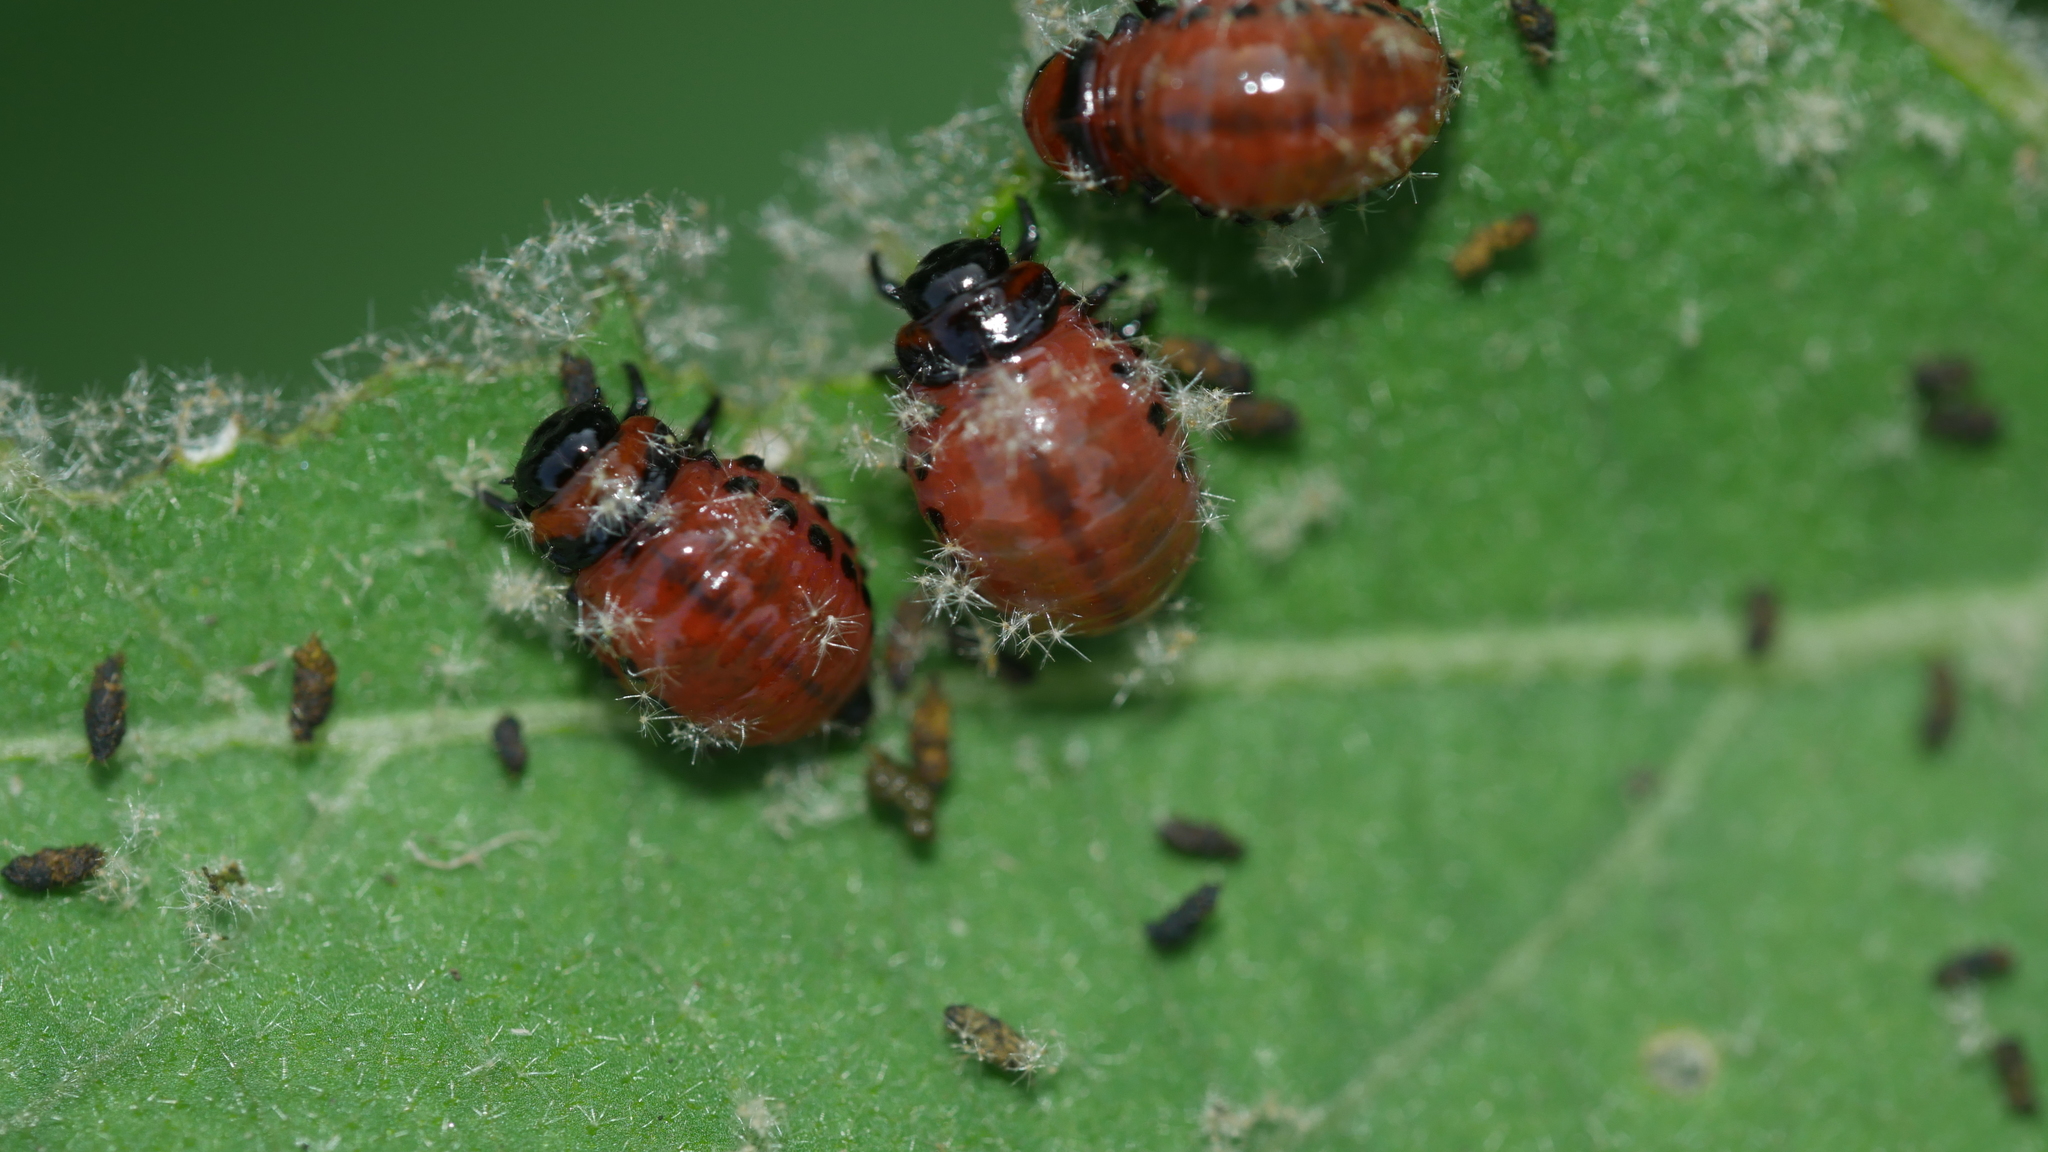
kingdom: Animalia
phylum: Arthropoda
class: Insecta
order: Coleoptera
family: Chrysomelidae
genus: Leptinotarsa
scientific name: Leptinotarsa decemlineata
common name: Colorado potato beetle
